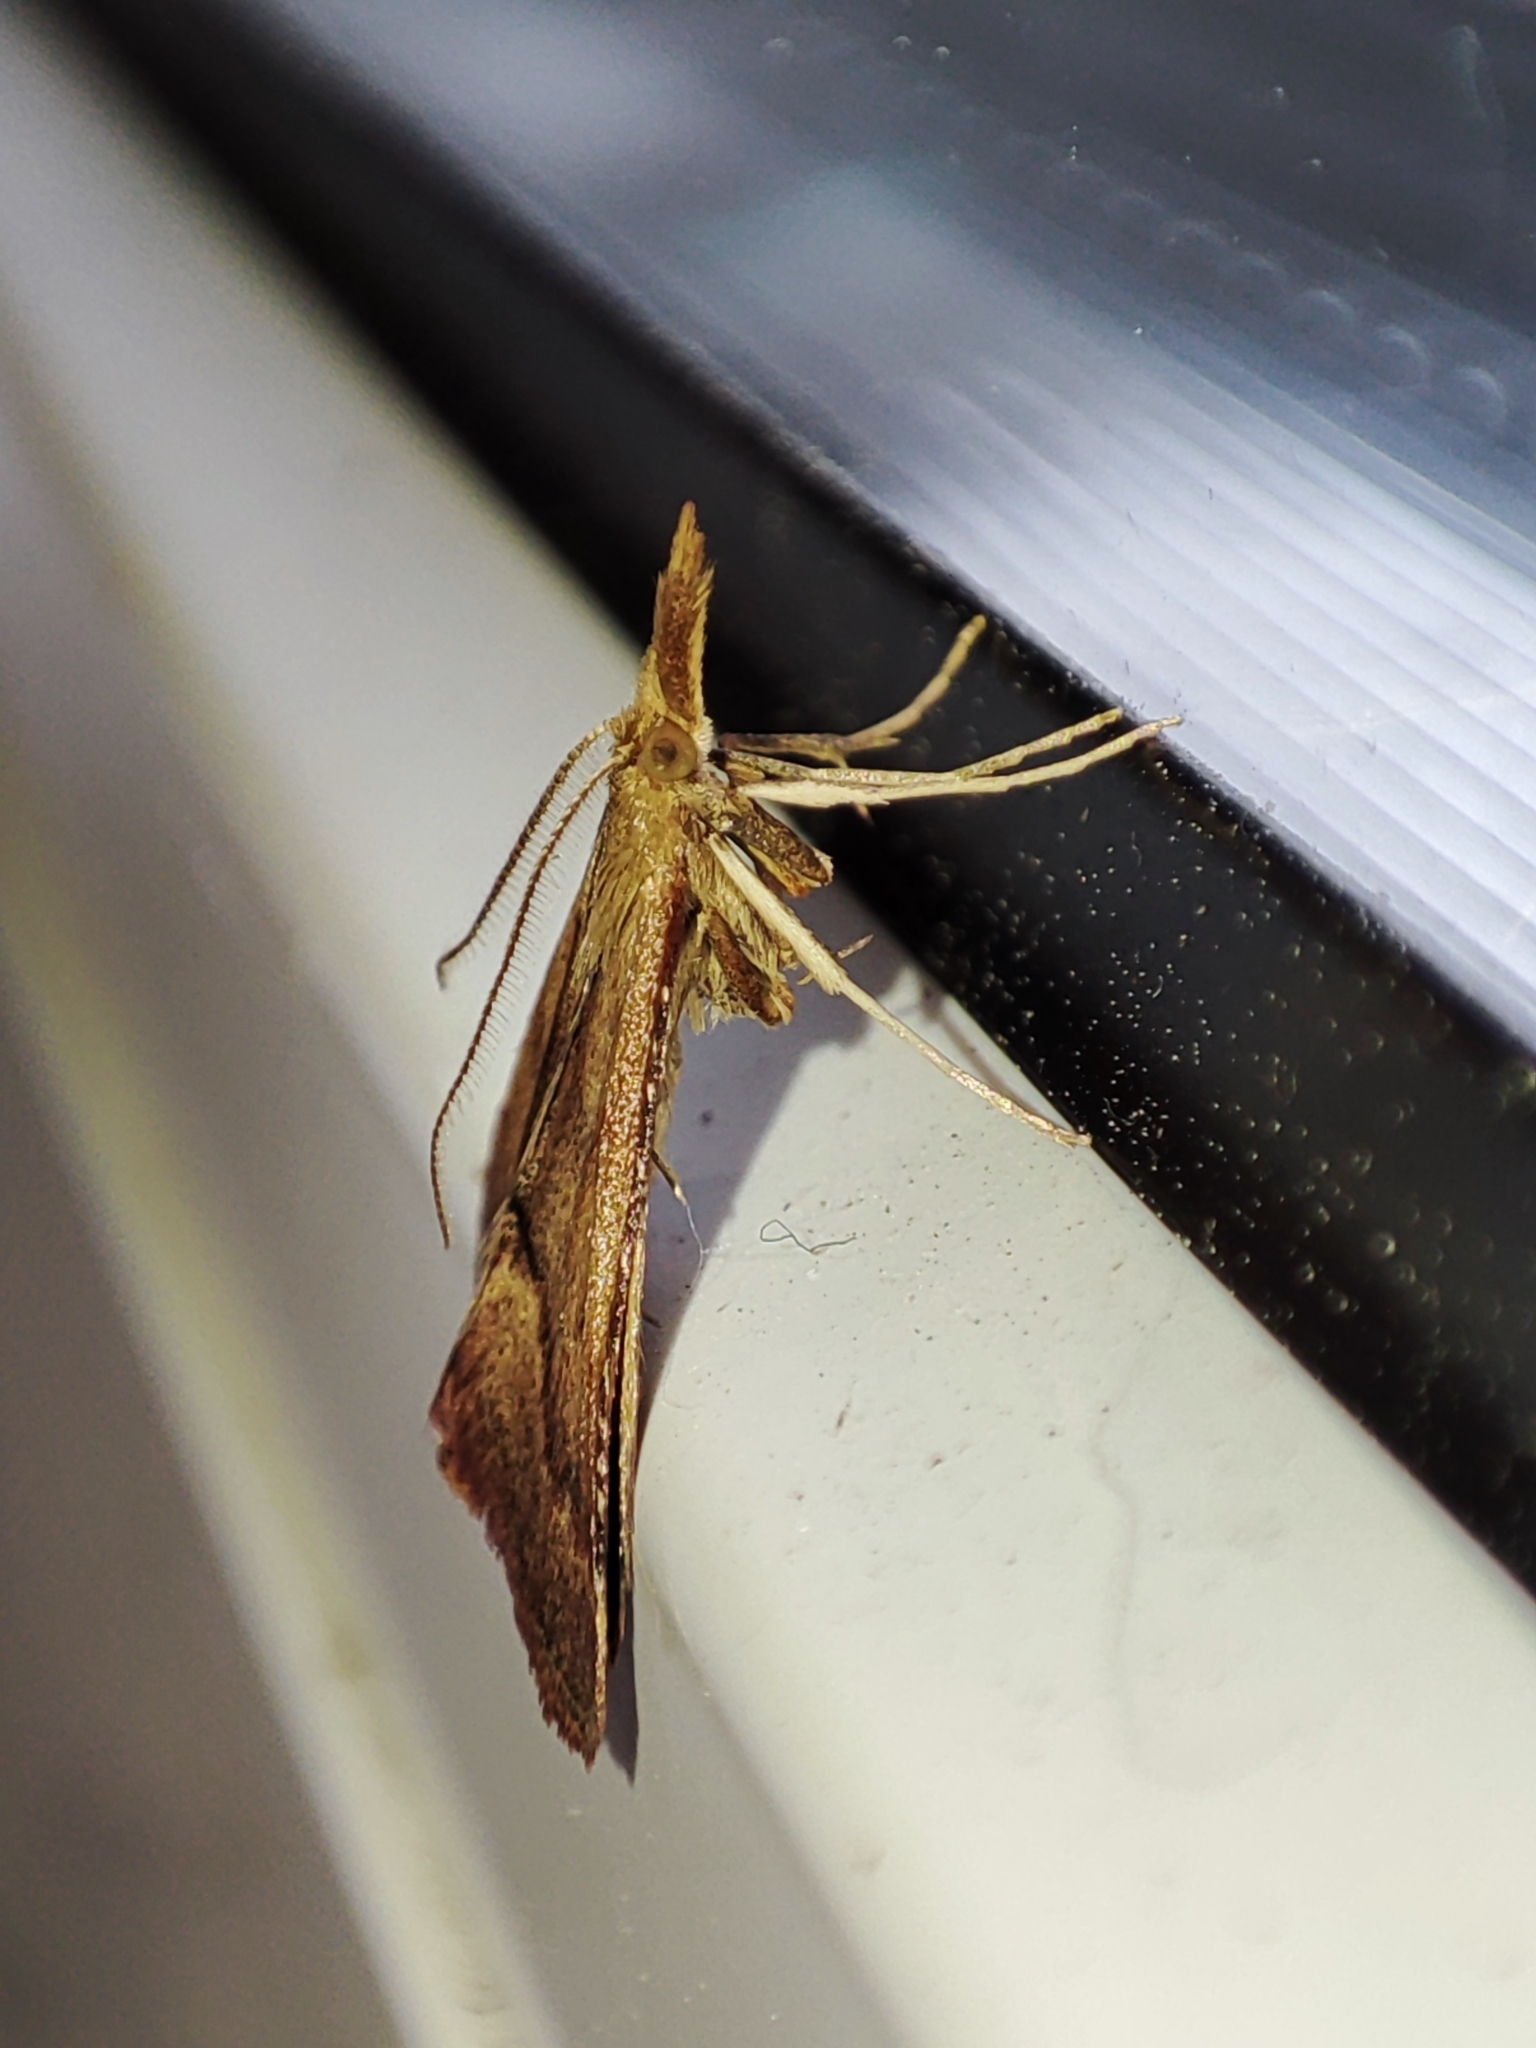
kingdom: Animalia
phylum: Arthropoda
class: Insecta
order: Lepidoptera
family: Pyralidae
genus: Synaphe
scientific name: Synaphe punctalis
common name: Long-legged tabby
